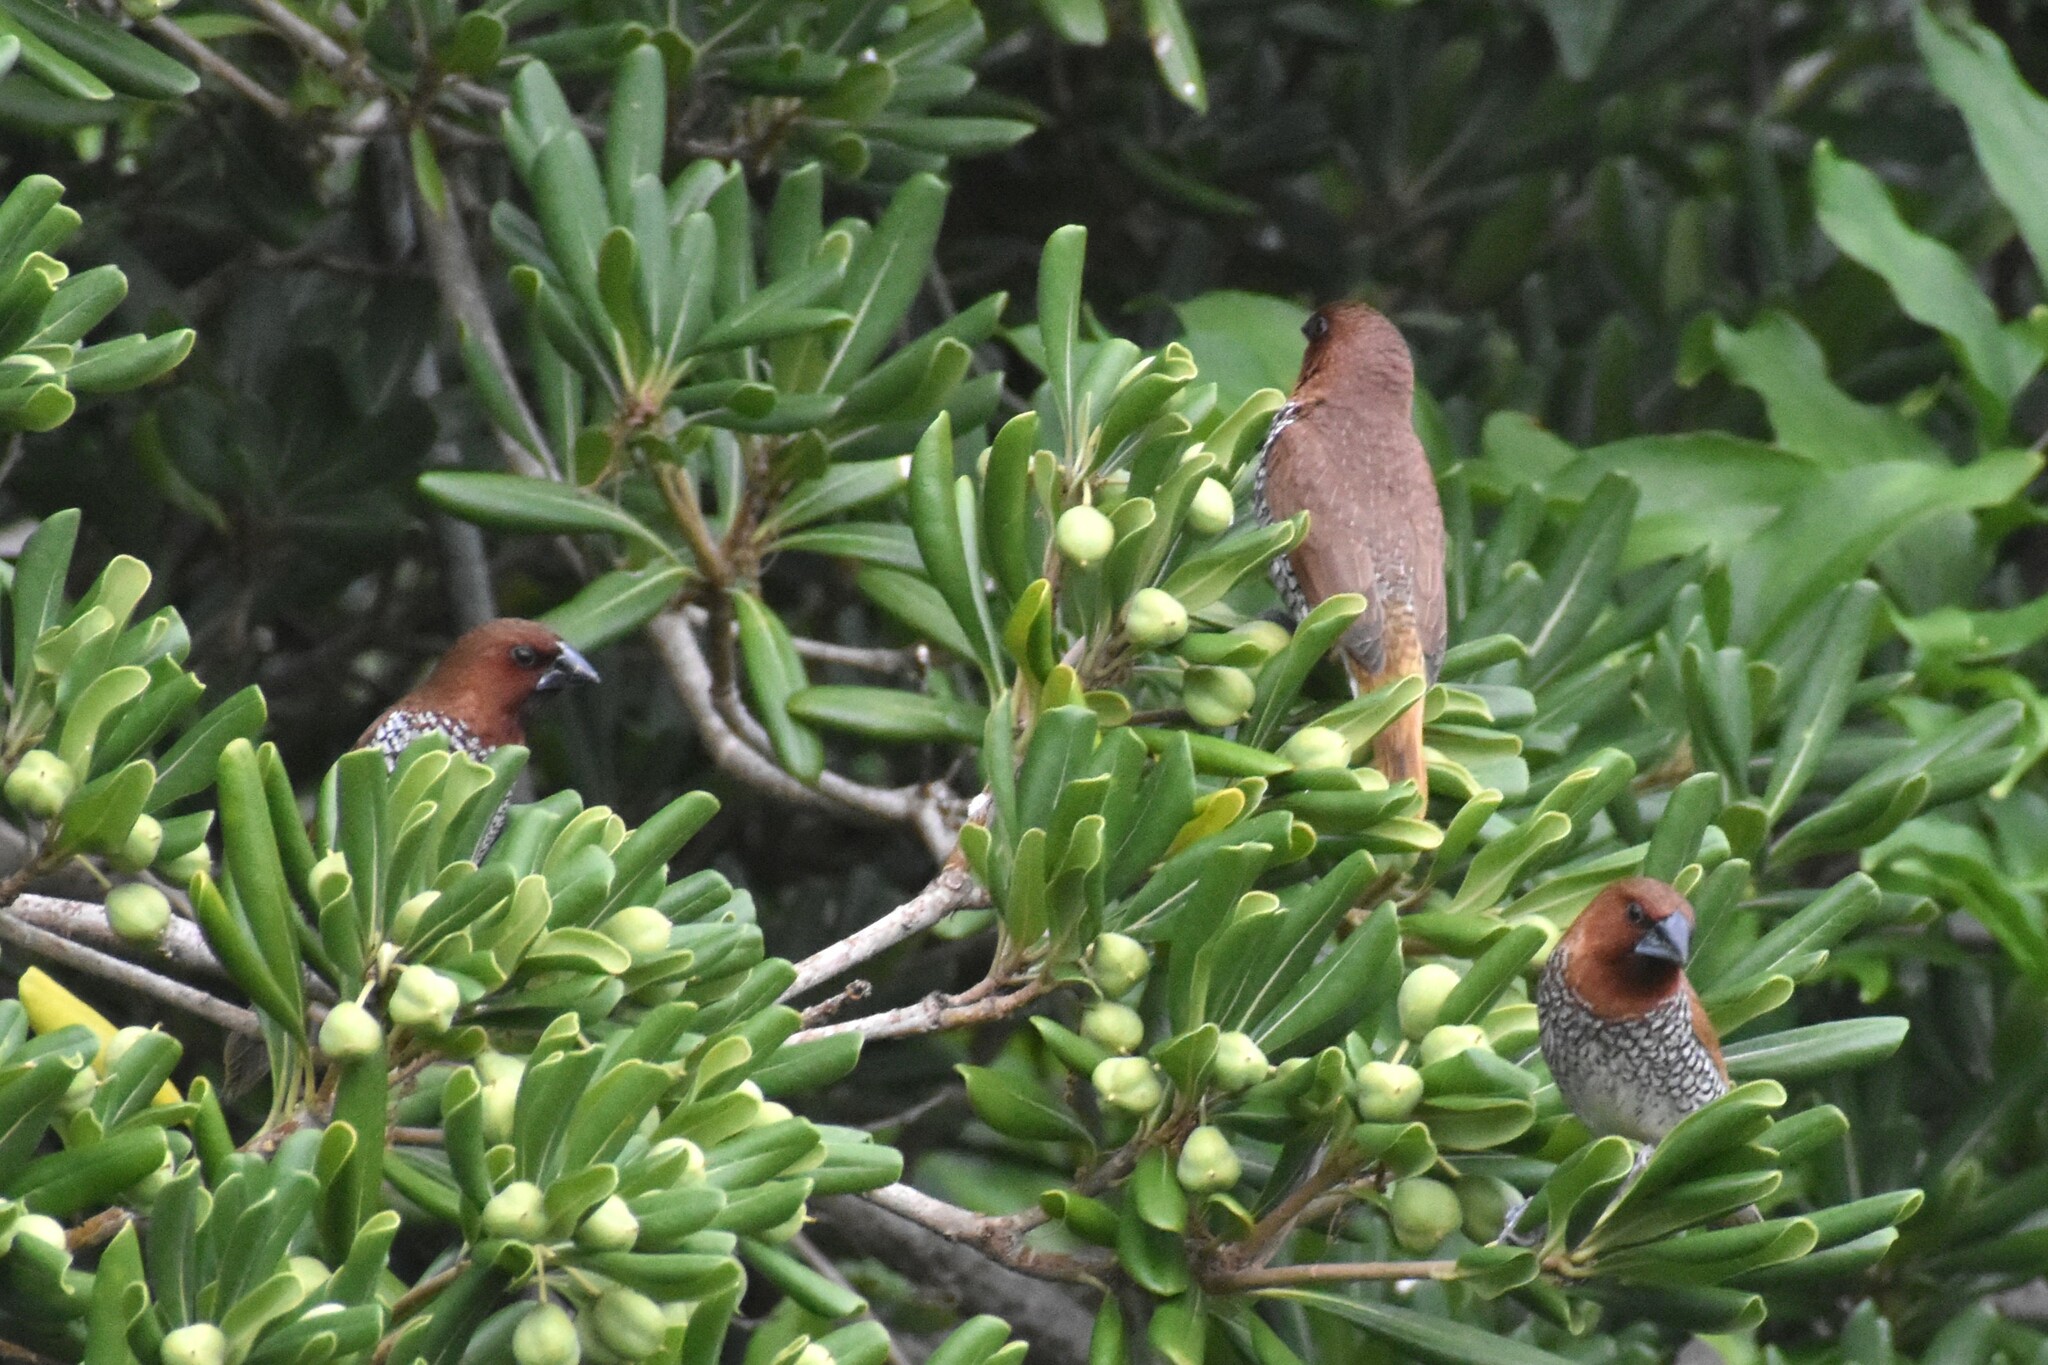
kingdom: Animalia
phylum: Chordata
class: Aves
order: Passeriformes
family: Estrildidae
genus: Lonchura
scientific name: Lonchura punctulata
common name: Scaly-breasted munia
